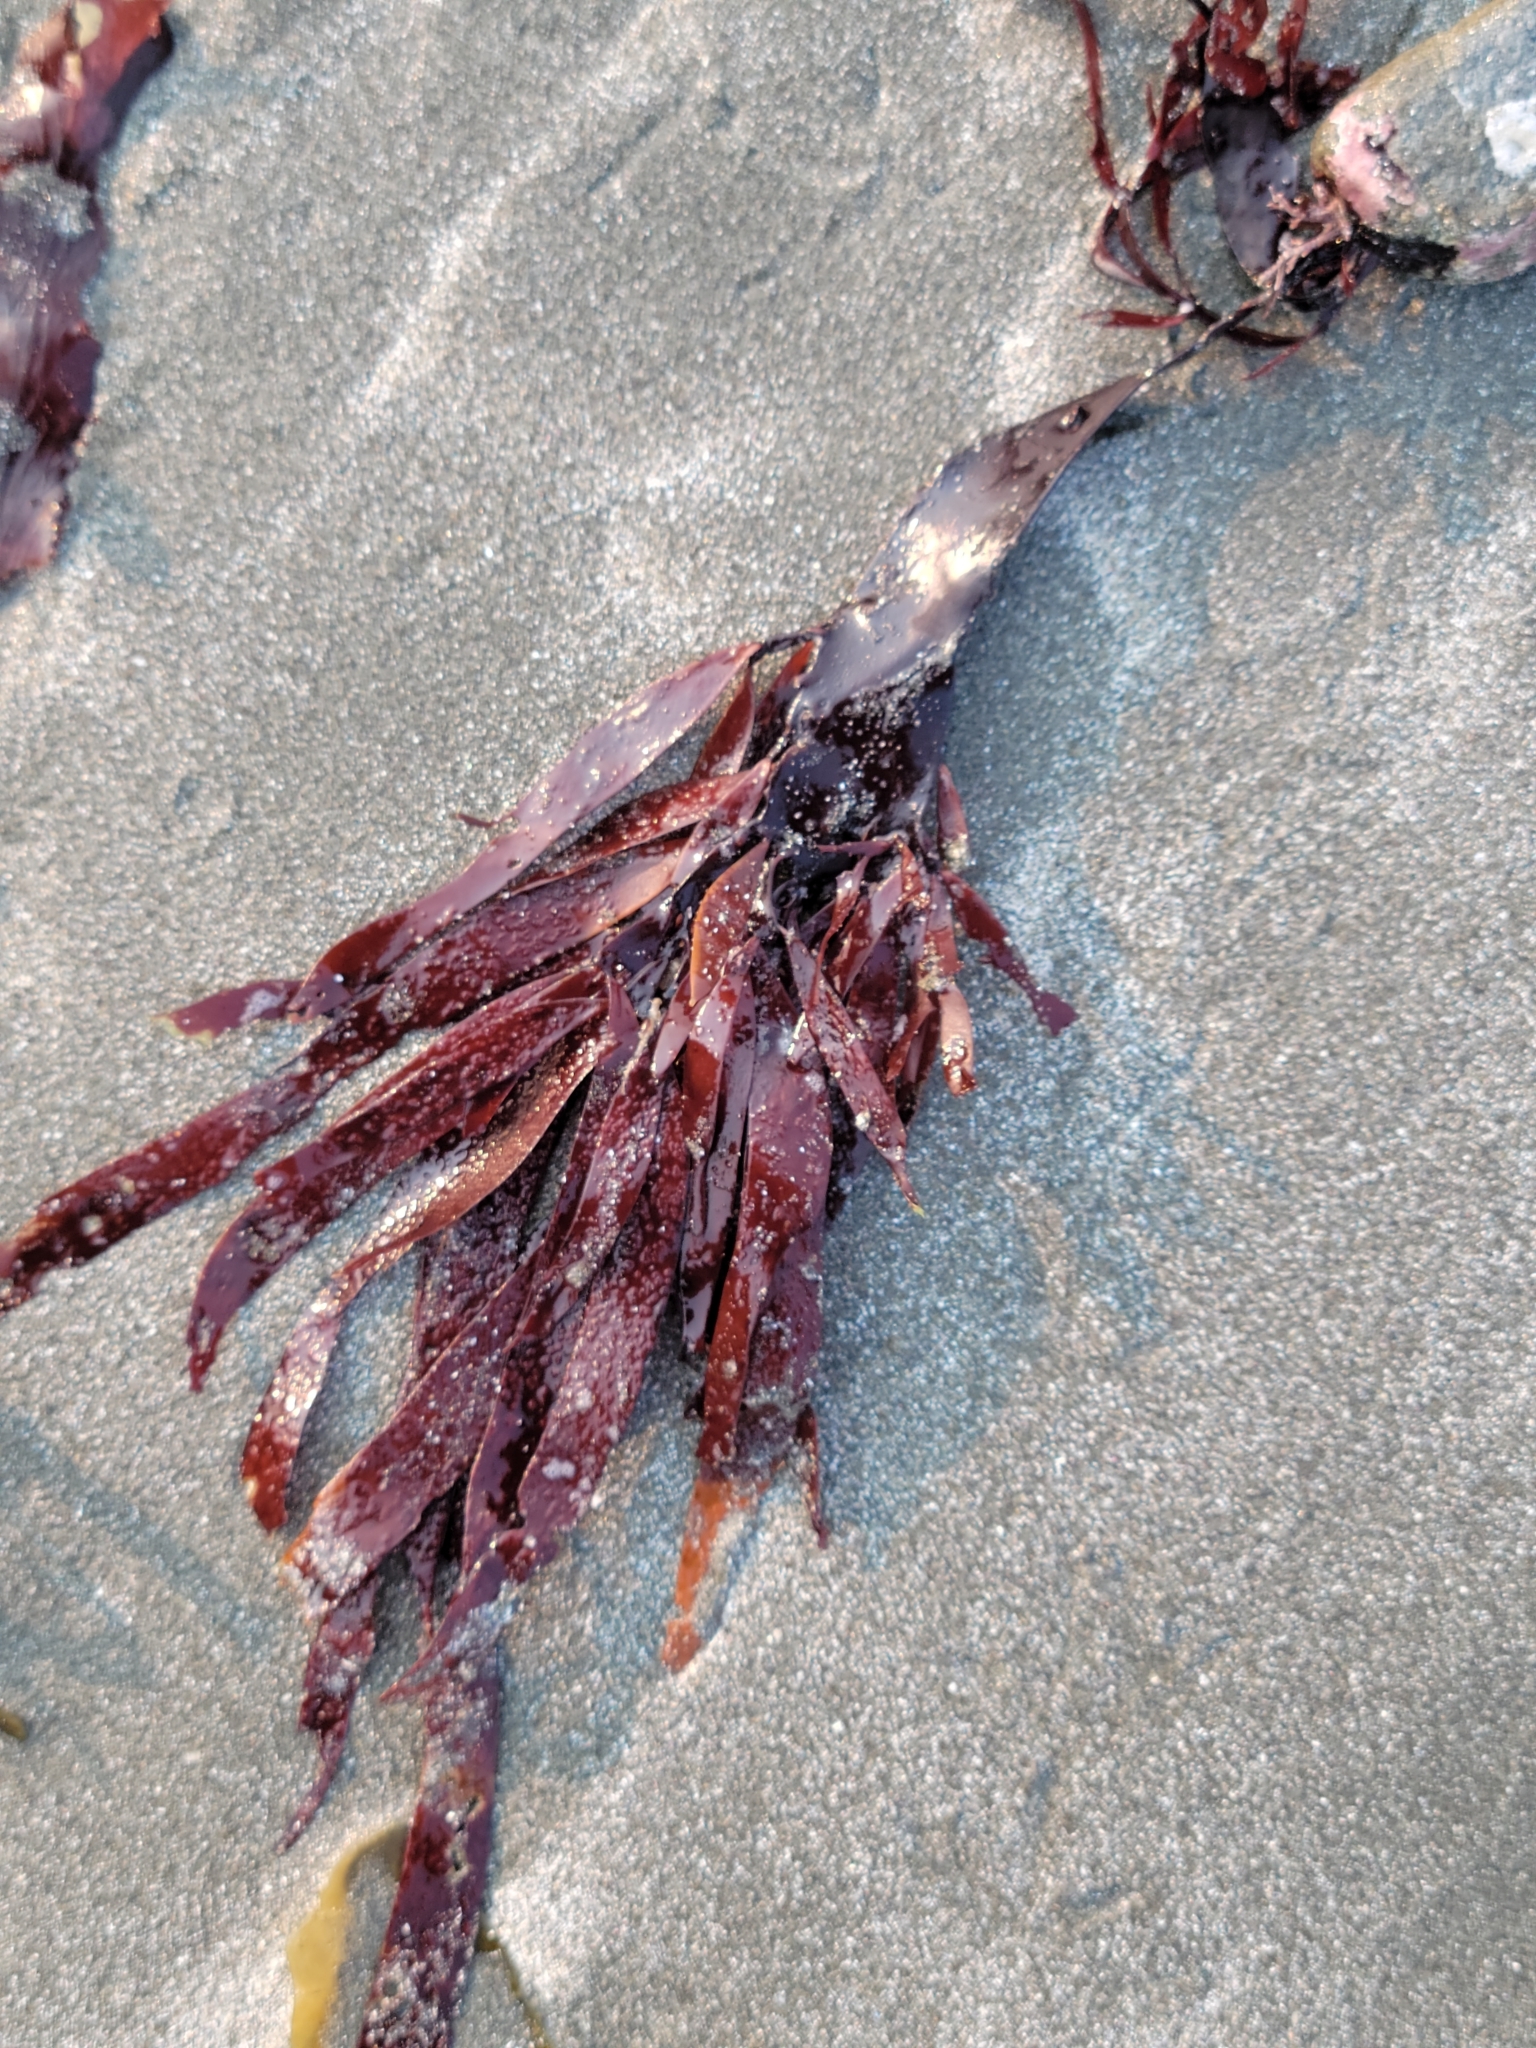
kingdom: Plantae
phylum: Rhodophyta
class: Florideophyceae
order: Halymeniales
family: Halymeniaceae
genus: Grateloupia
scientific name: Grateloupia Prionitis sternbergii
